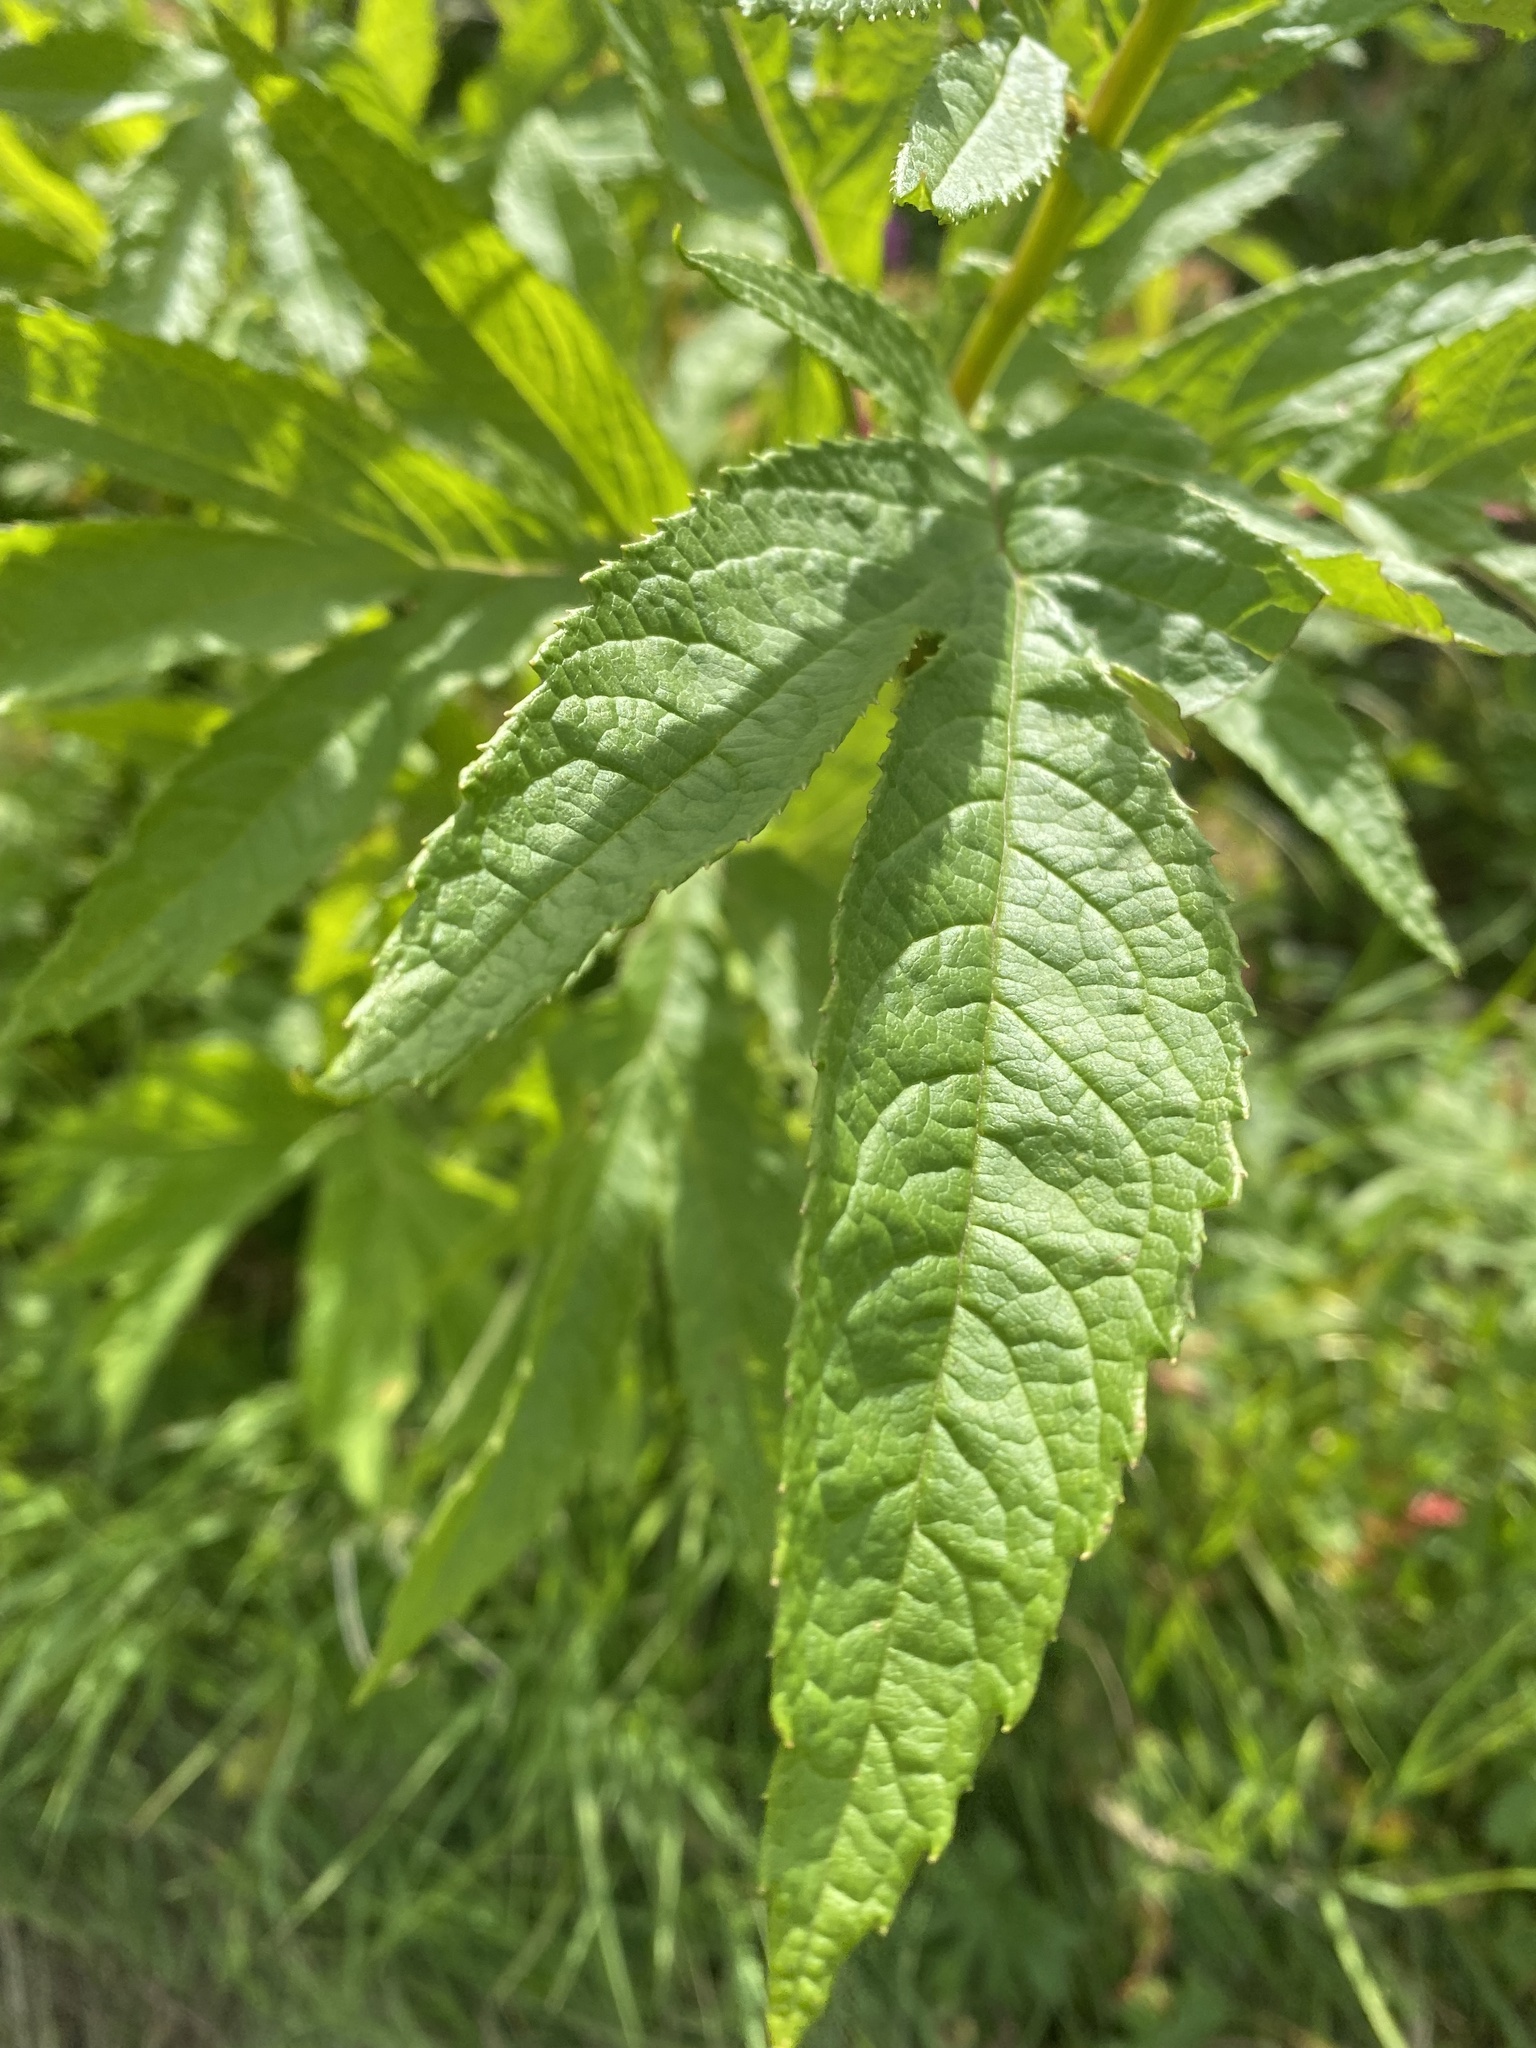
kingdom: Plantae
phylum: Tracheophyta
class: Magnoliopsida
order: Asterales
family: Asteraceae
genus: Jacobaea
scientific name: Jacobaea cannabifolia
